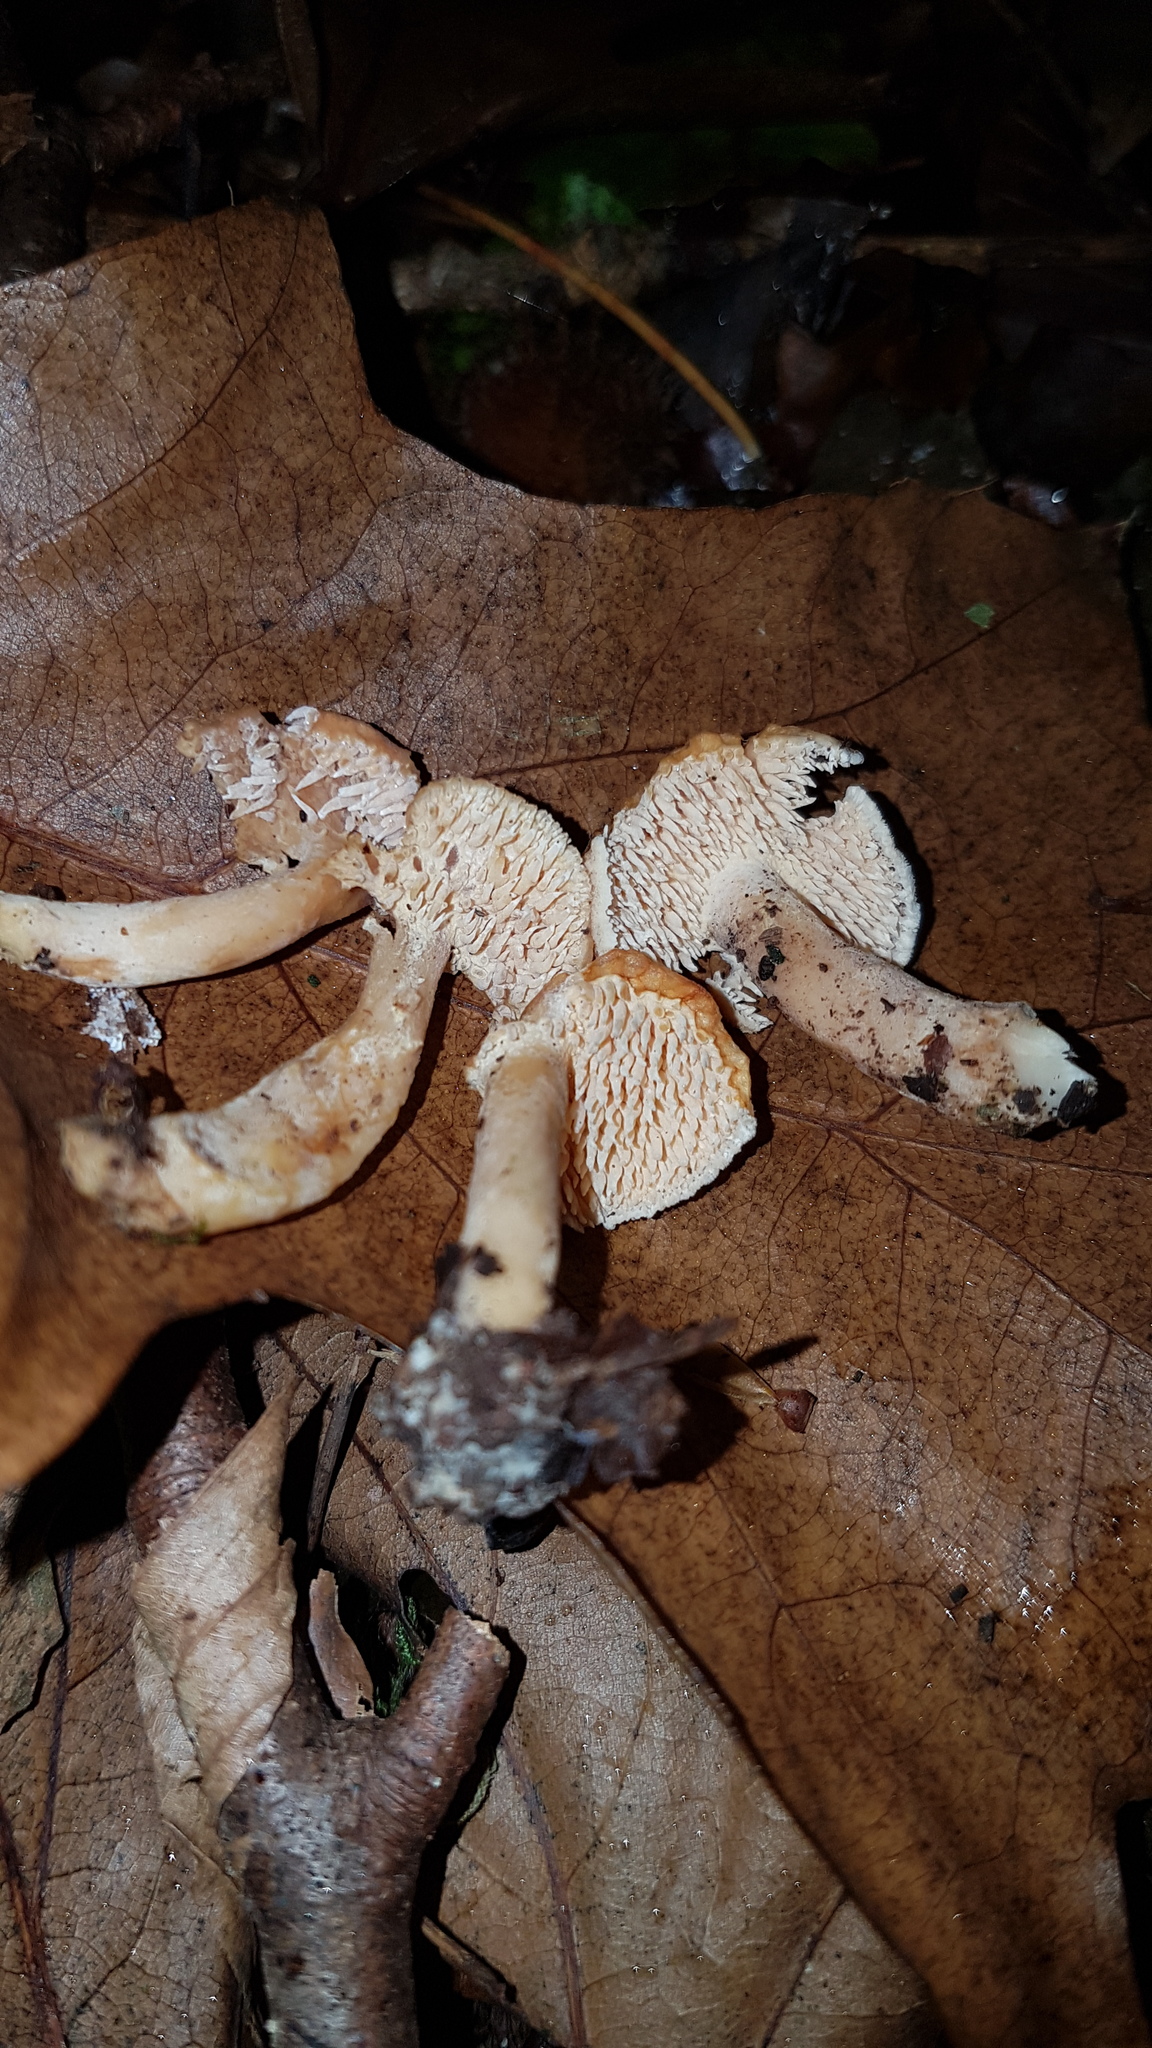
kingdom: Fungi
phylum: Basidiomycota
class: Agaricomycetes
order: Cantharellales
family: Hydnaceae
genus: Hydnum
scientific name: Hydnum rufescens
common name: Terracotta hedgehog
